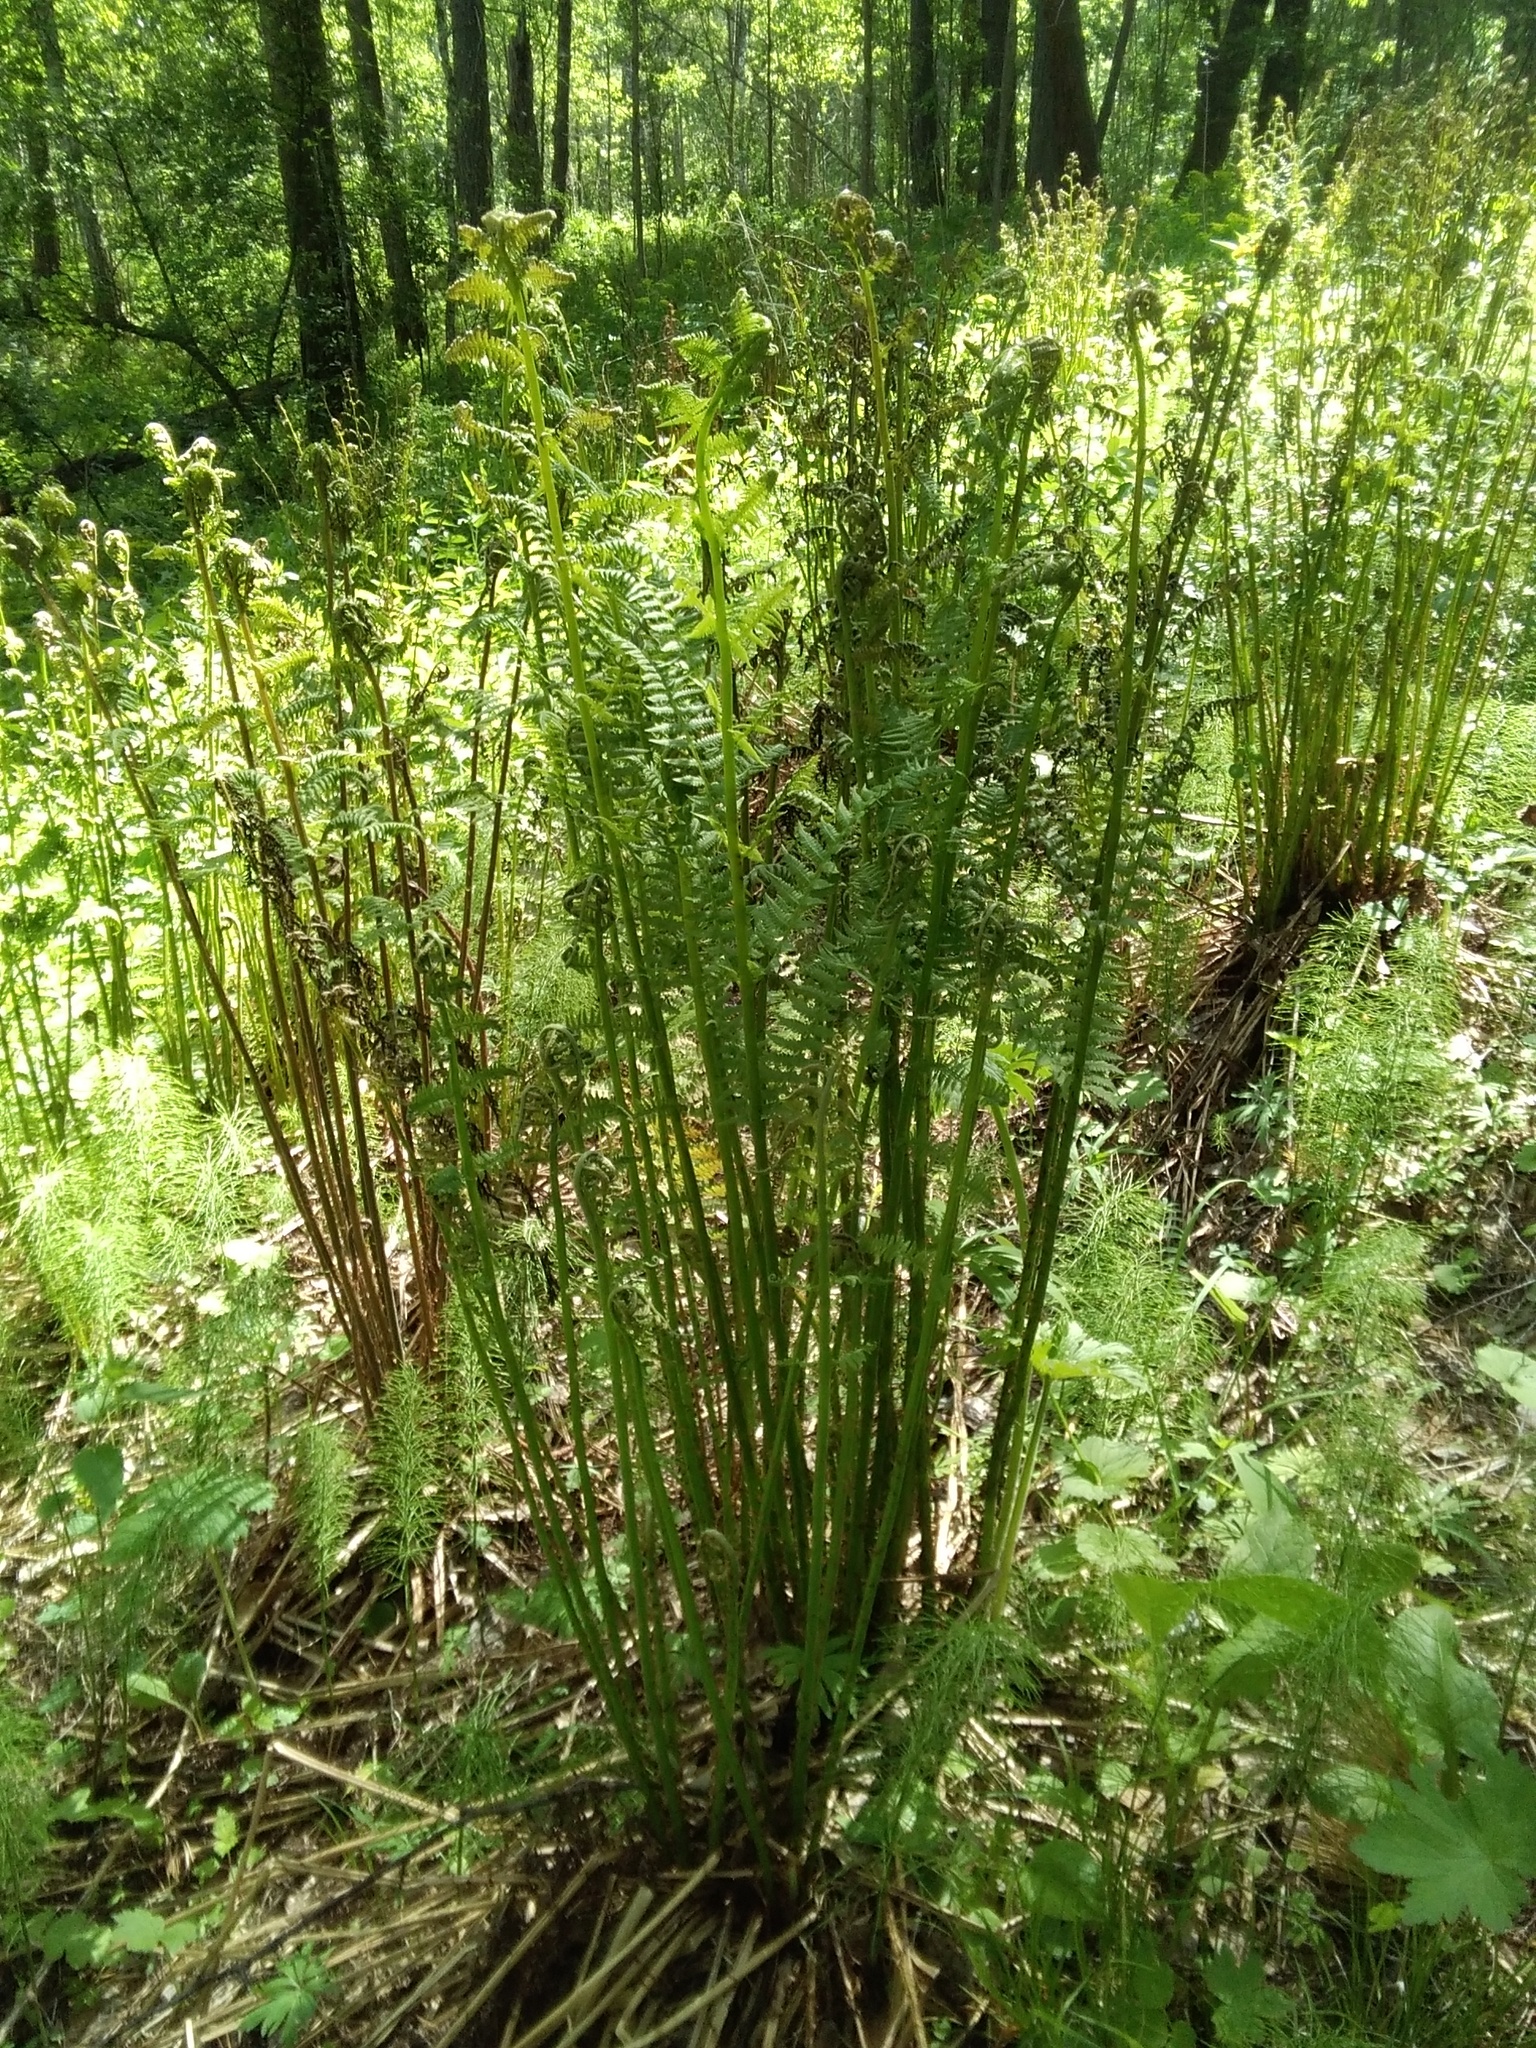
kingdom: Plantae
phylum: Tracheophyta
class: Polypodiopsida
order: Polypodiales
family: Athyriaceae
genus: Athyrium
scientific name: Athyrium filix-femina
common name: Lady fern
